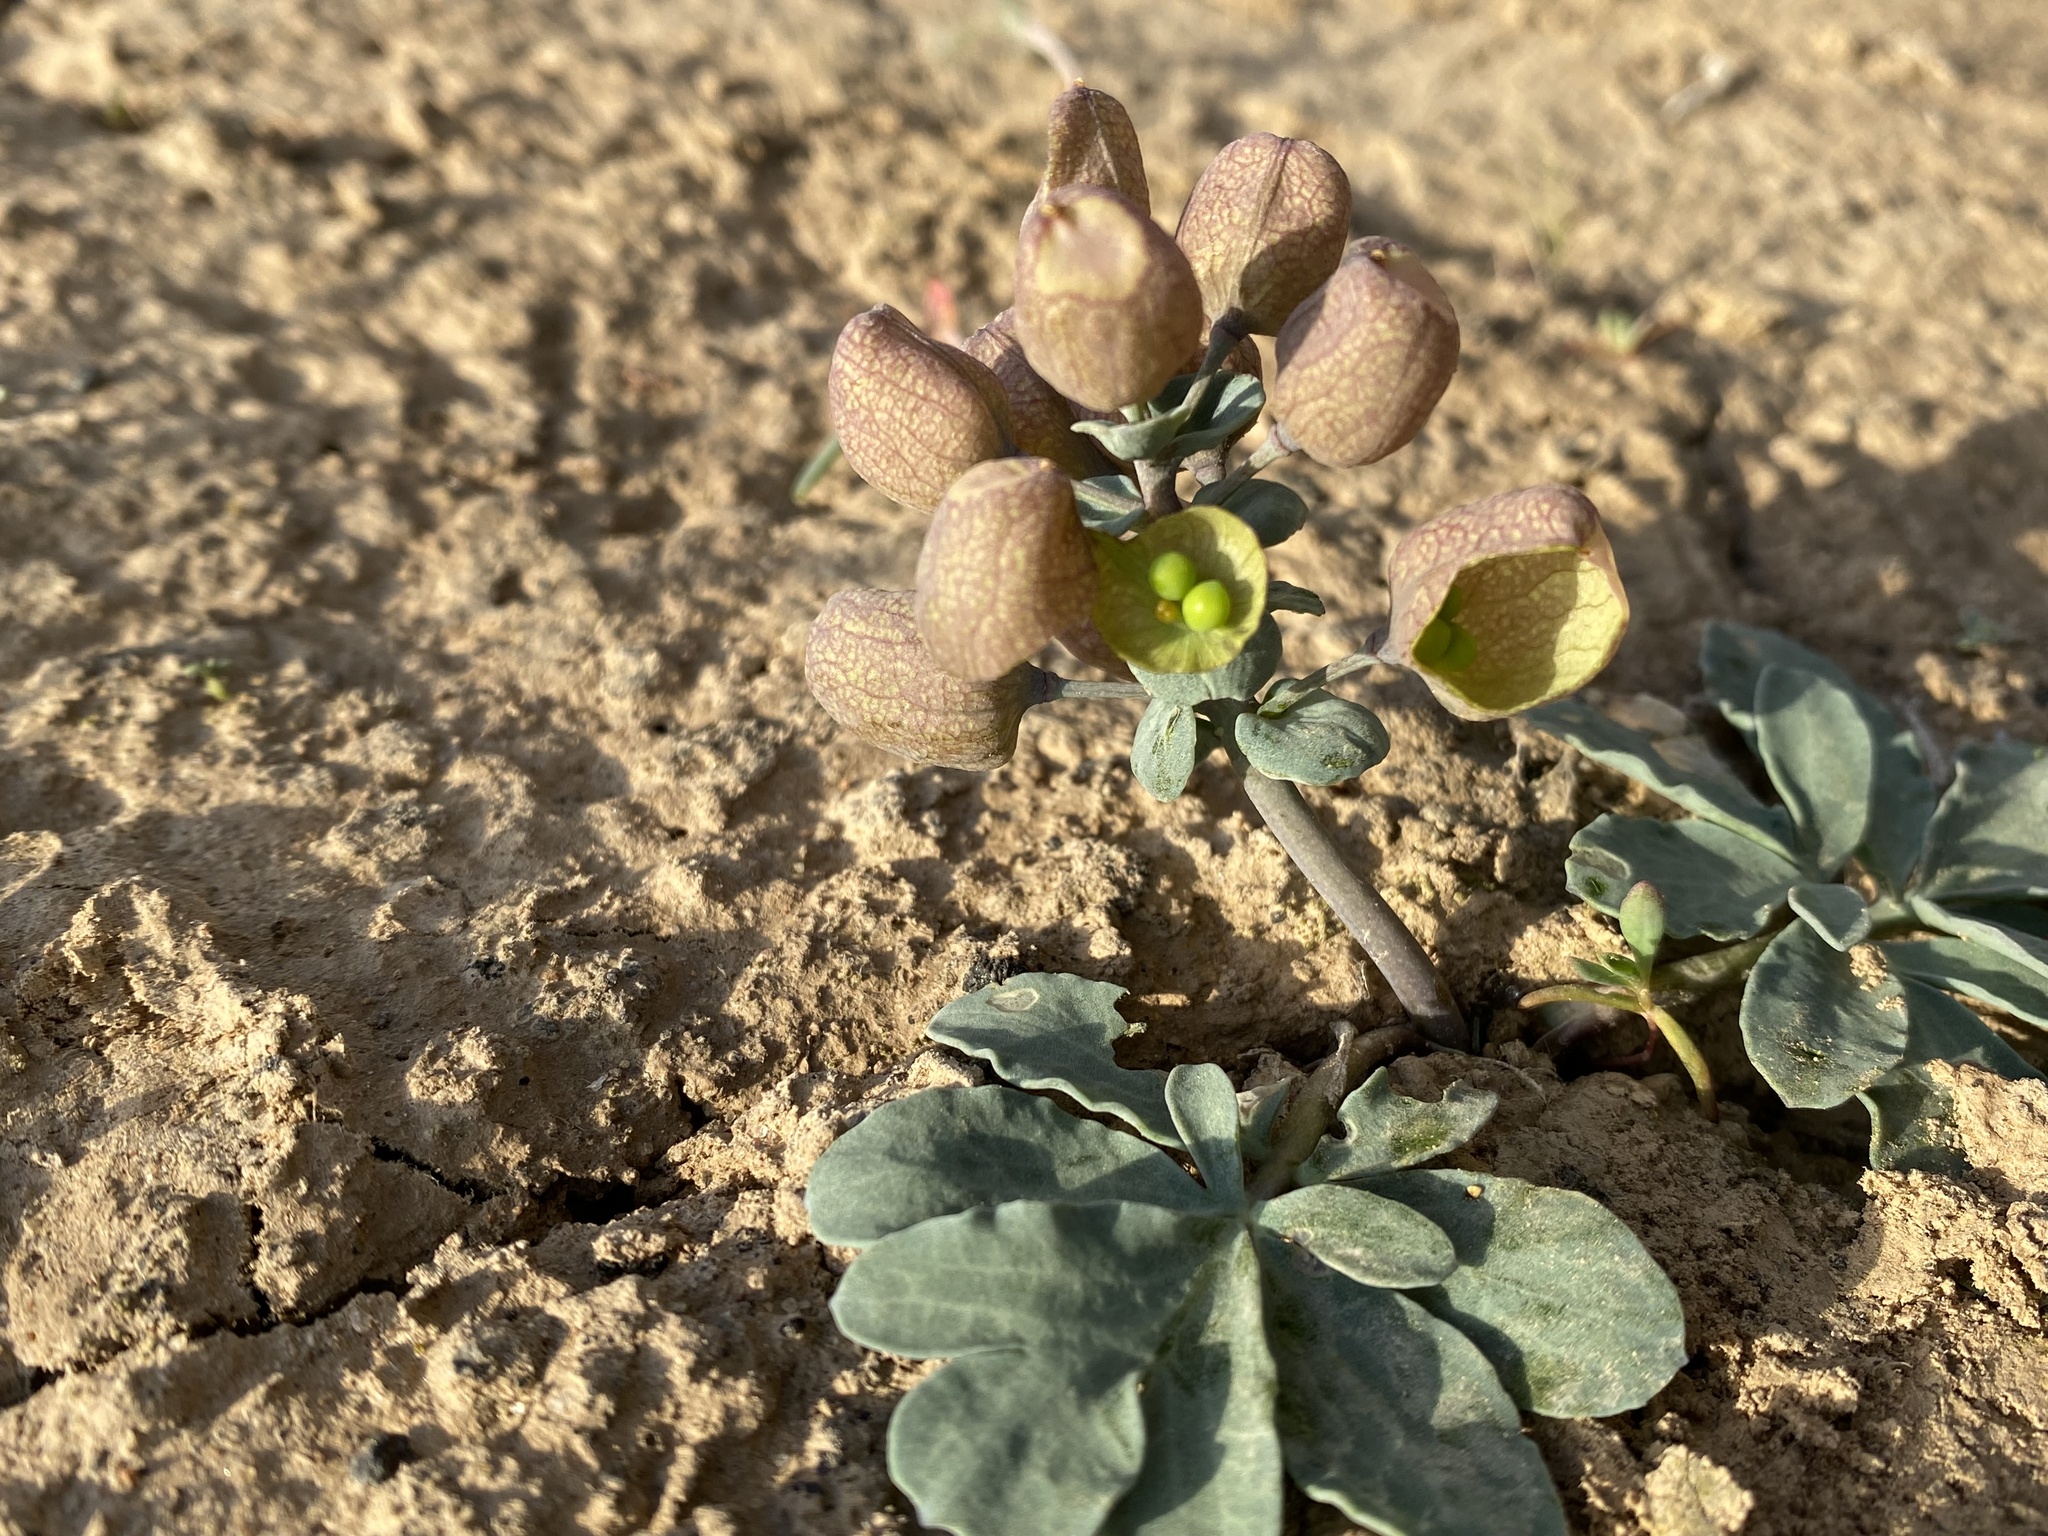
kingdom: Plantae
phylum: Tracheophyta
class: Magnoliopsida
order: Ranunculales
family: Berberidaceae
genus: Leontice
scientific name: Leontice incerta
